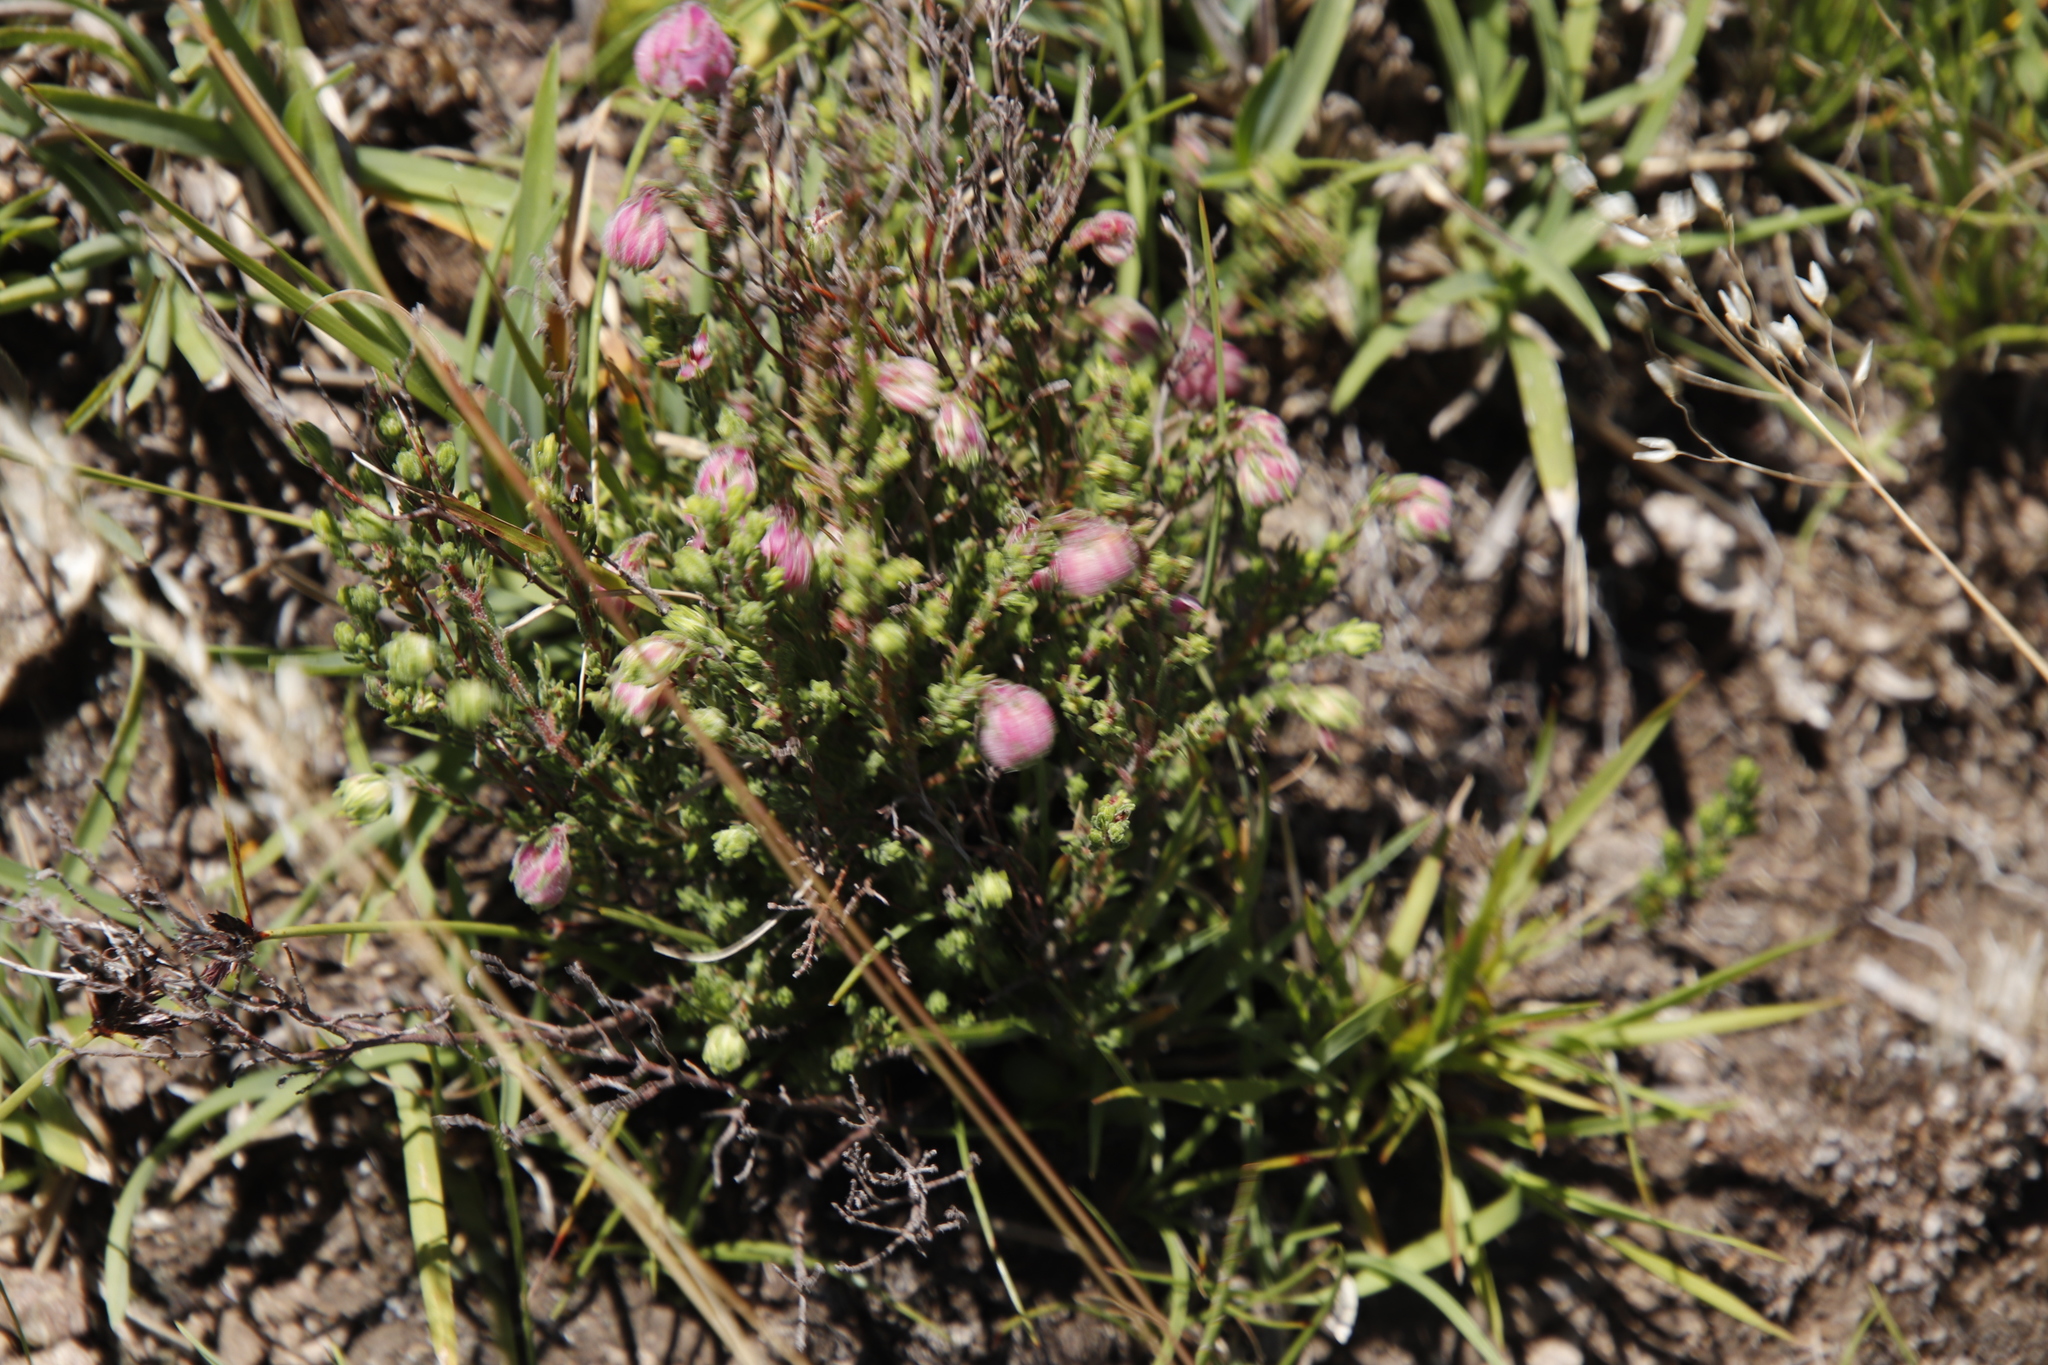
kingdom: Plantae
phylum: Tracheophyta
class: Magnoliopsida
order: Ericales
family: Ericaceae
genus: Erica
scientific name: Erica cooperi
